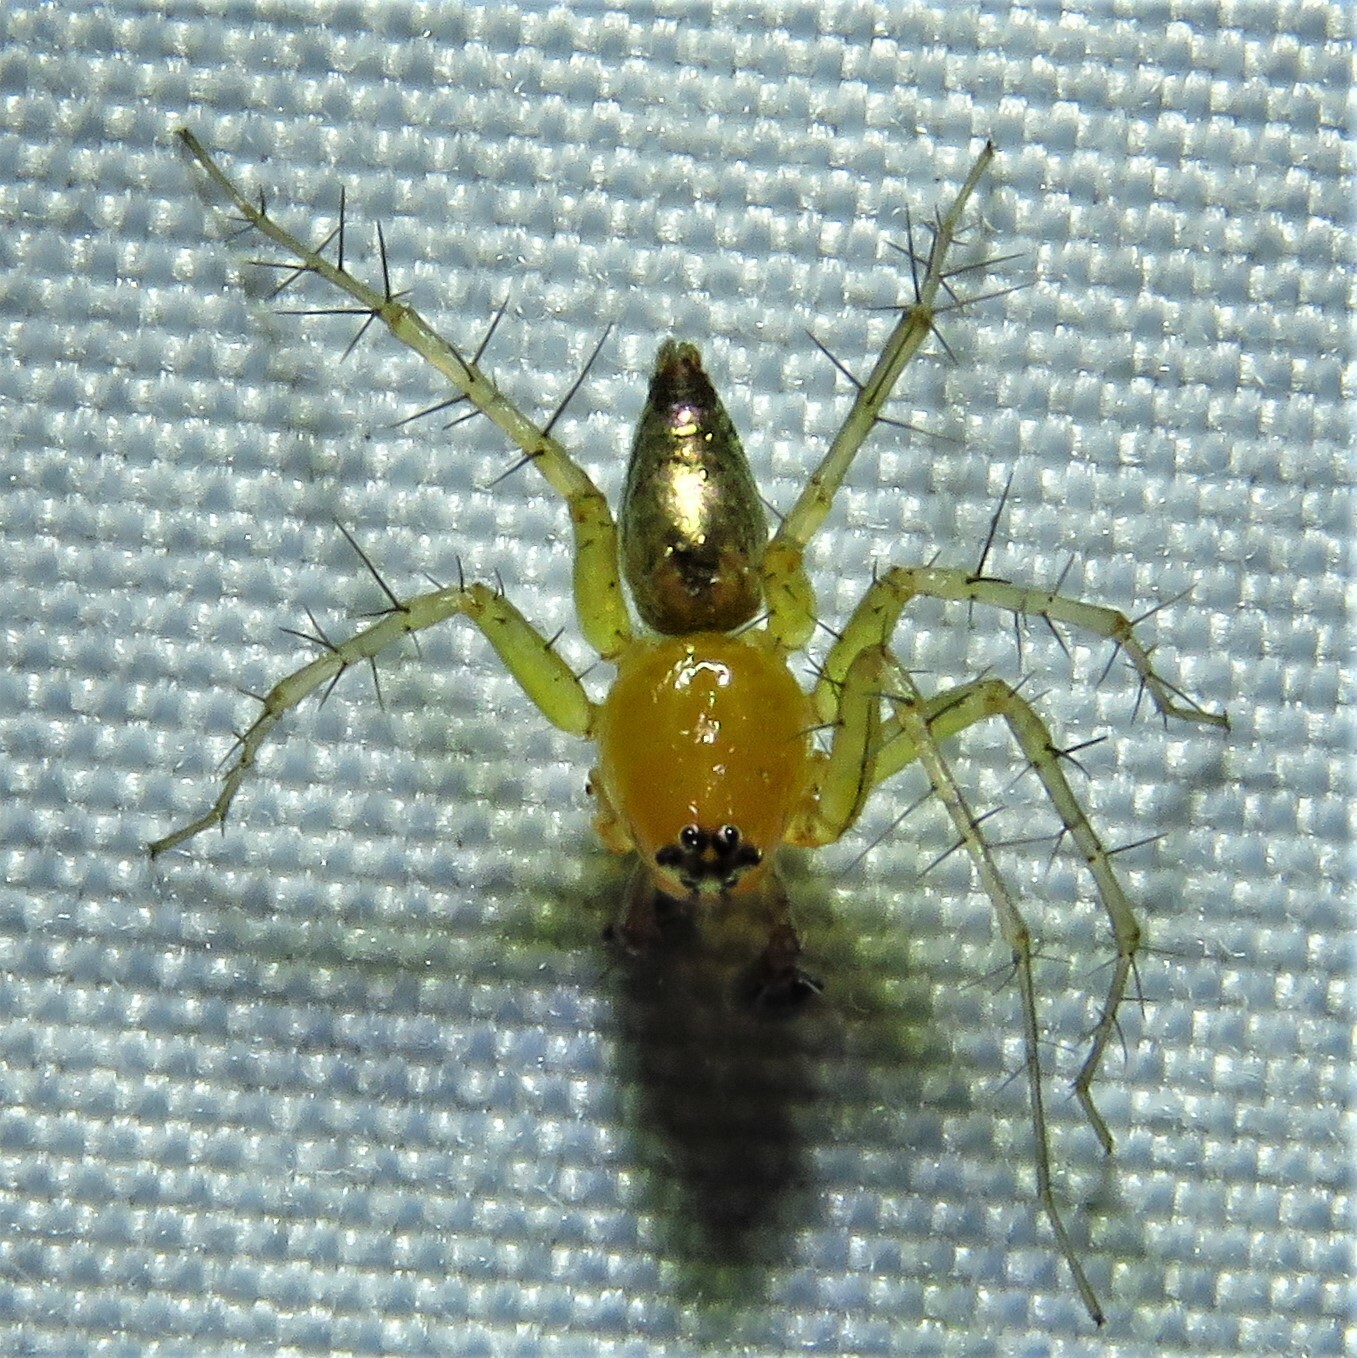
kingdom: Animalia
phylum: Arthropoda
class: Arachnida
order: Araneae
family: Oxyopidae
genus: Oxyopes
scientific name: Oxyopes salticus
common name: Lynx spiders
